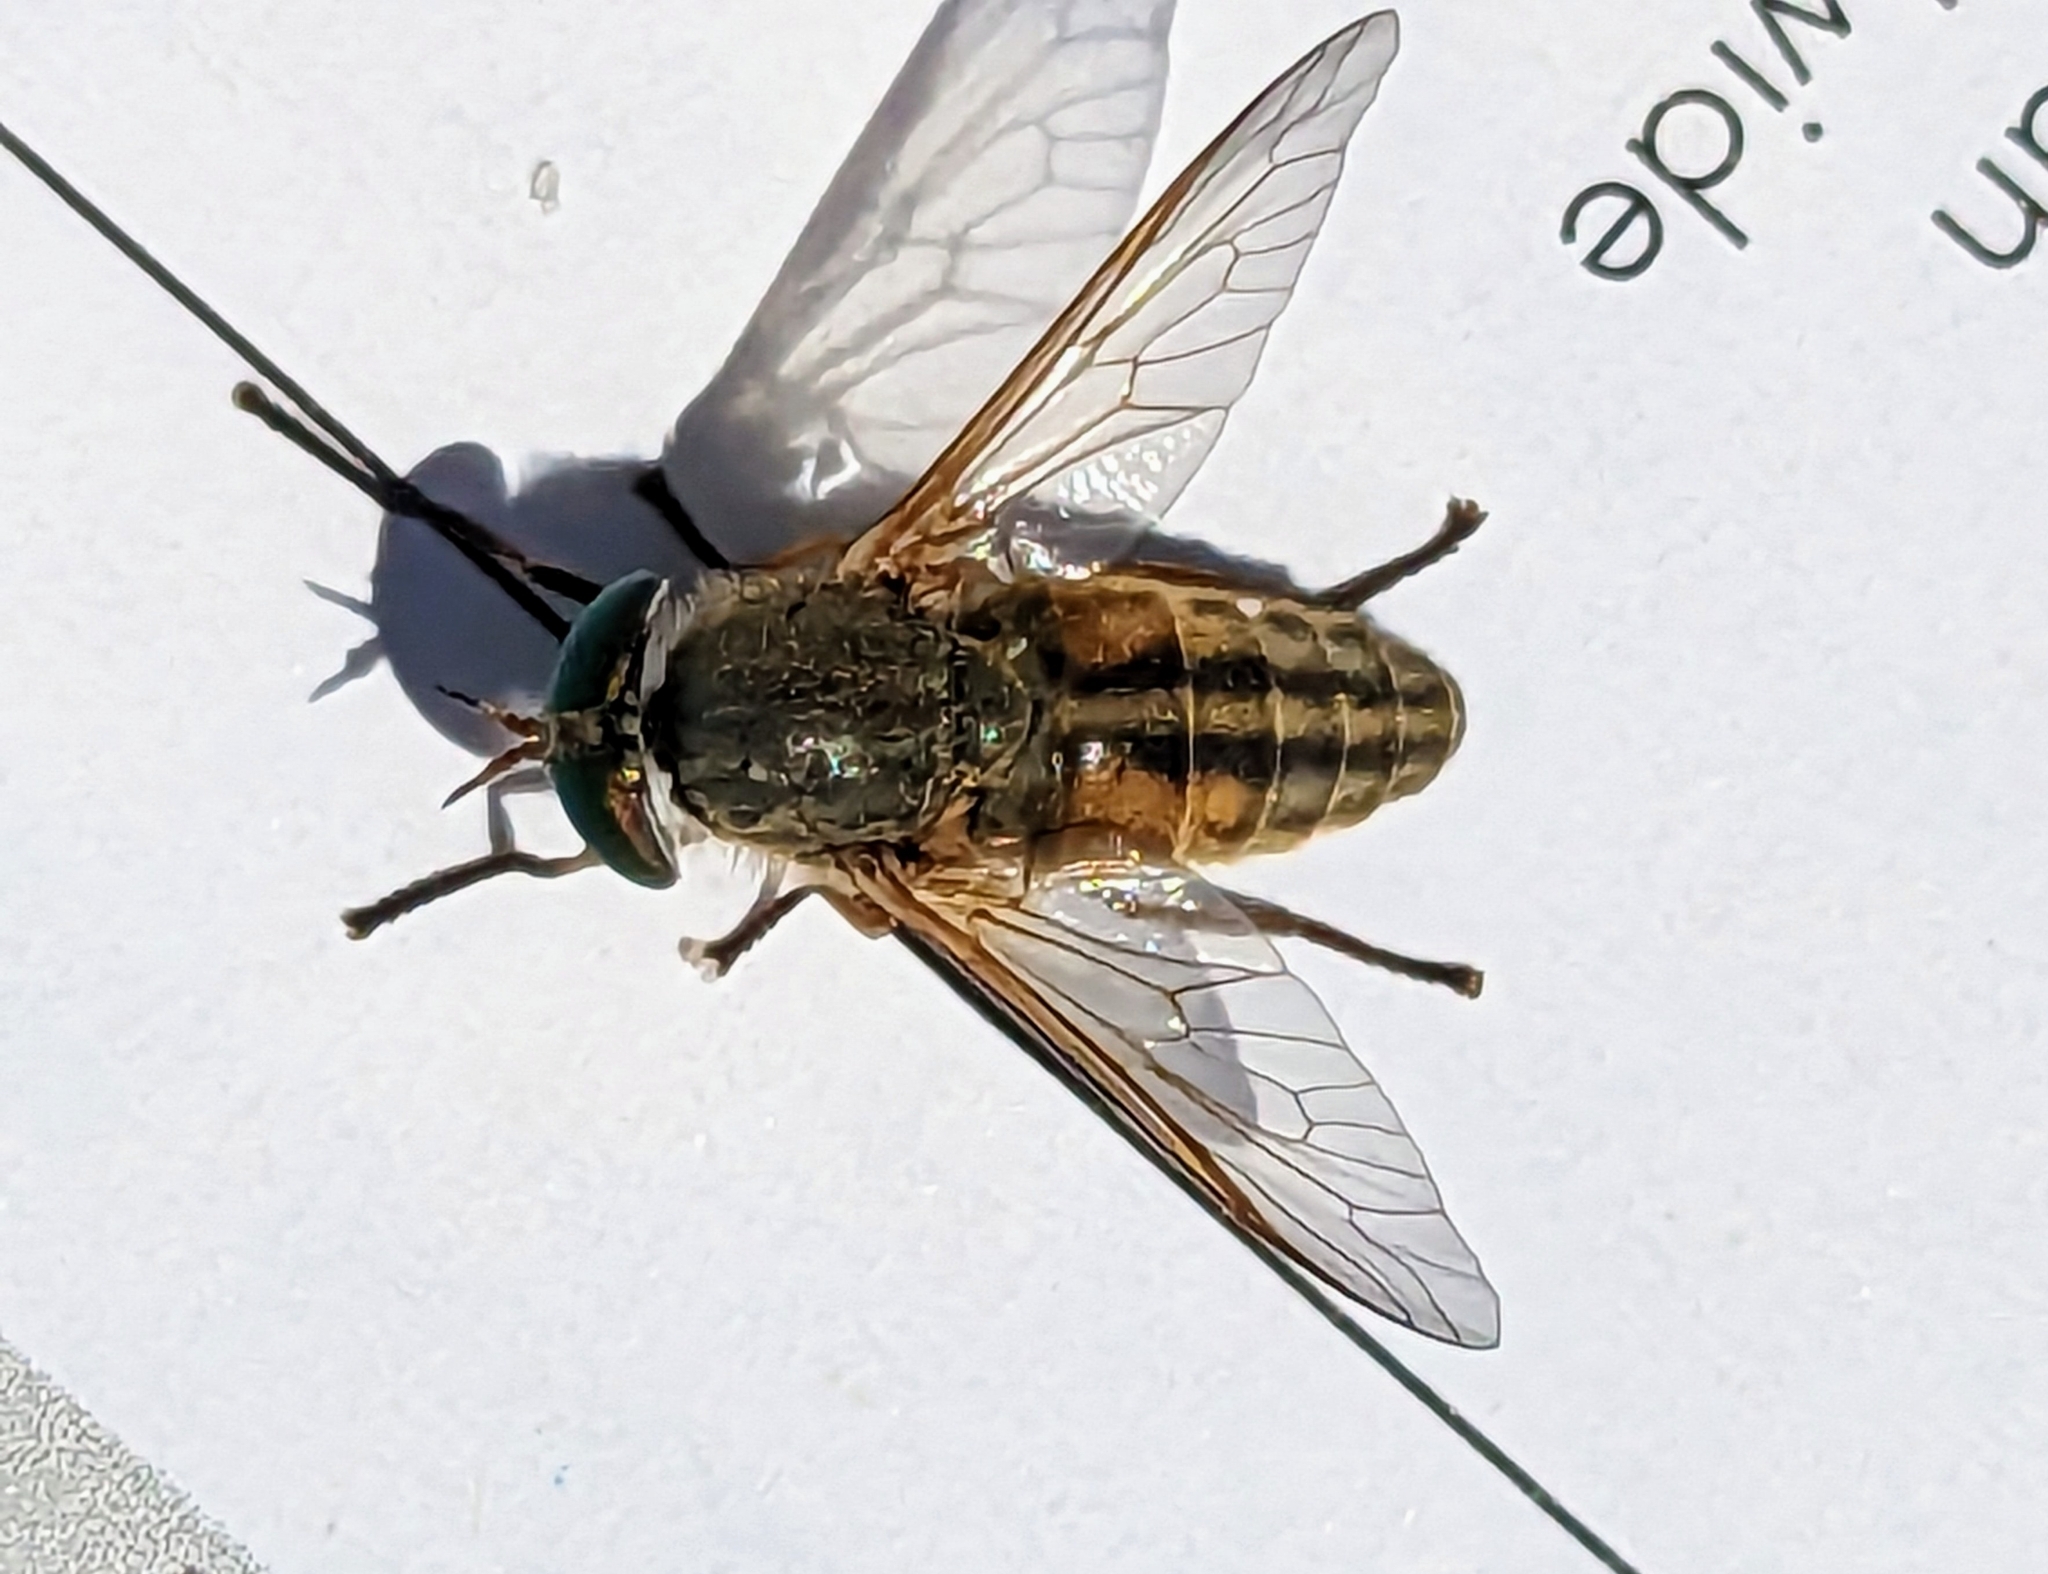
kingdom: Animalia
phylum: Arthropoda
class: Insecta
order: Diptera
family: Tabanidae
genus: Tabanus
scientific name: Tabanus
